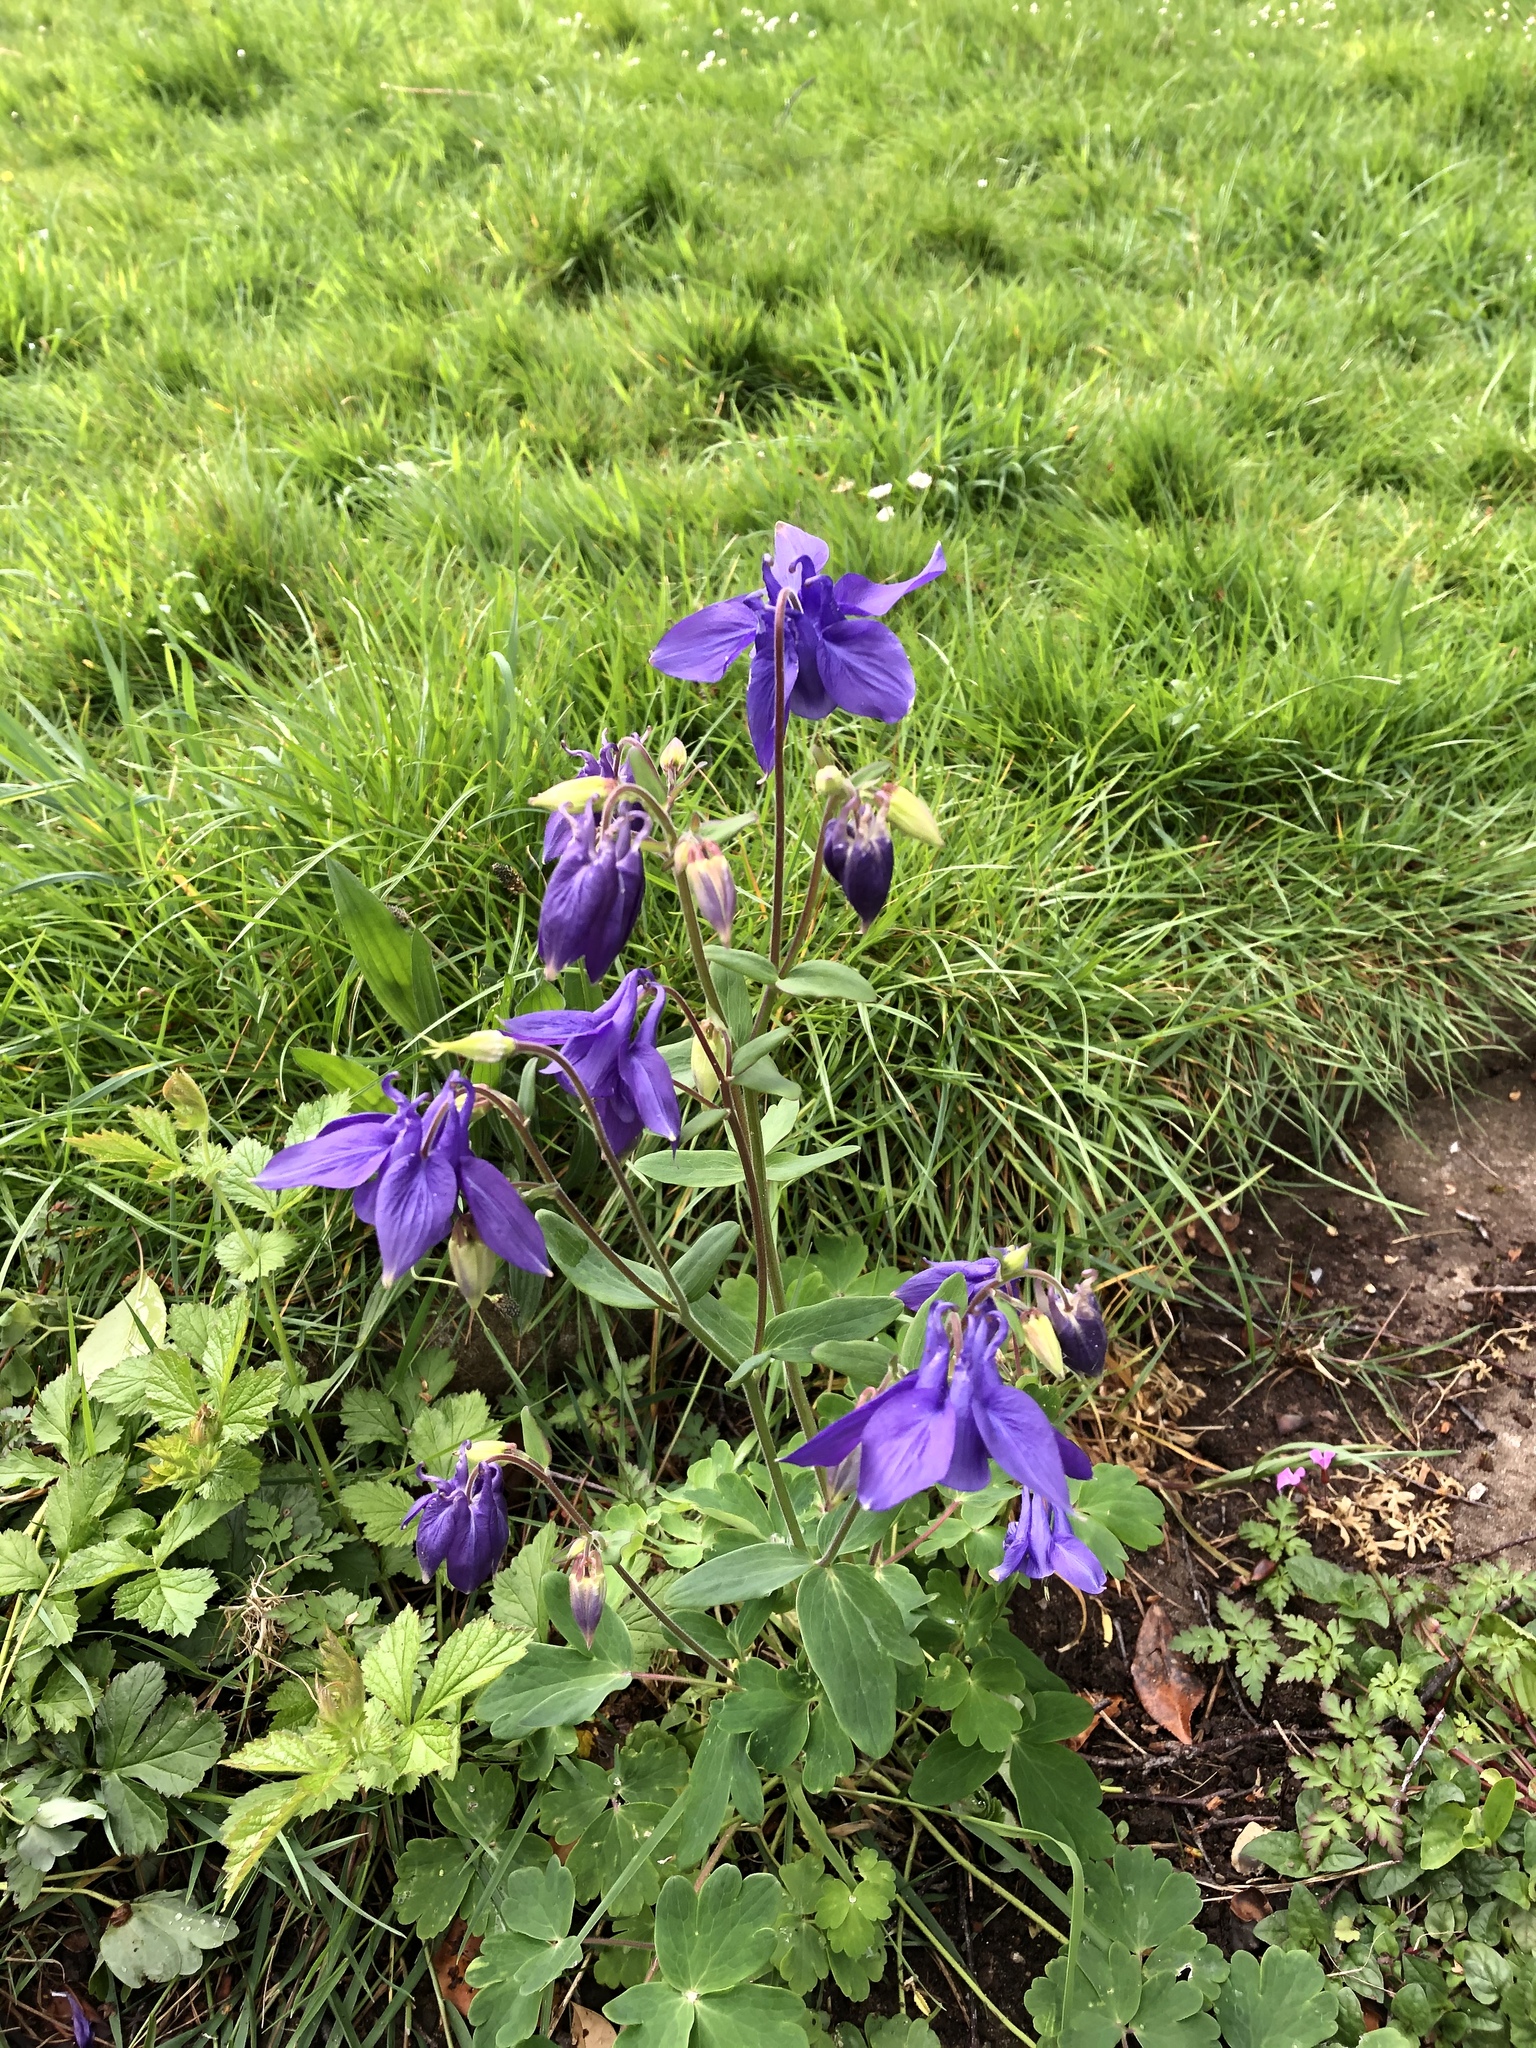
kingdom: Plantae
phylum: Tracheophyta
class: Magnoliopsida
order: Ranunculales
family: Ranunculaceae
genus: Aquilegia
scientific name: Aquilegia vulgaris
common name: Columbine
